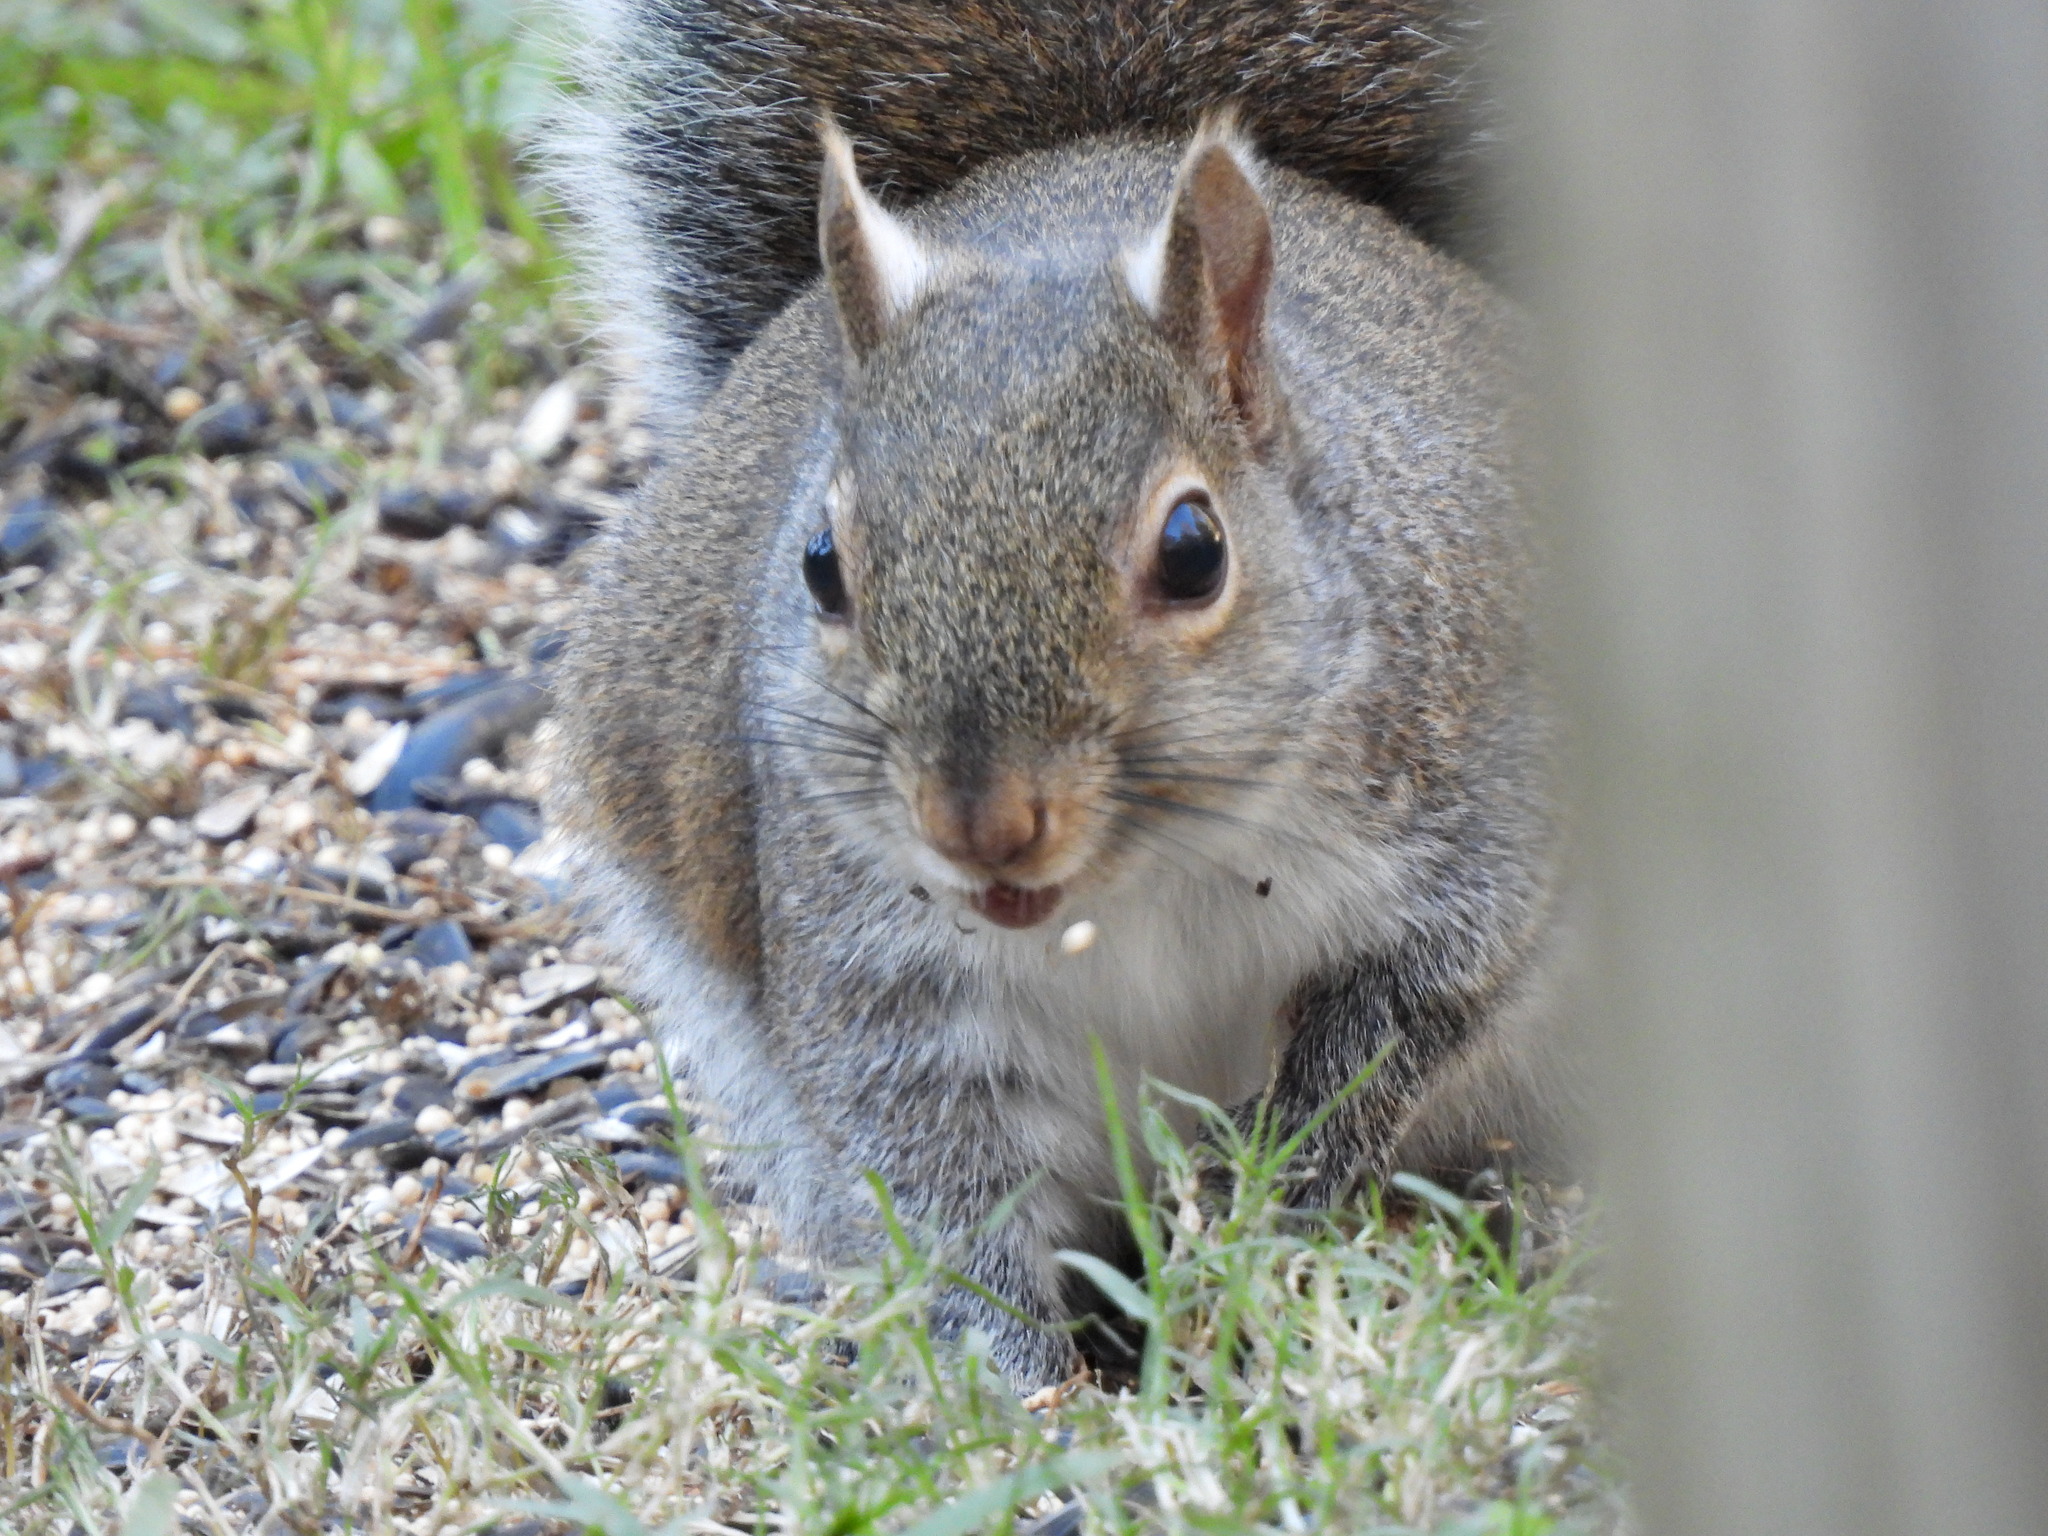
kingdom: Animalia
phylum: Chordata
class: Mammalia
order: Rodentia
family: Sciuridae
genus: Sciurus
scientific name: Sciurus carolinensis
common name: Eastern gray squirrel
